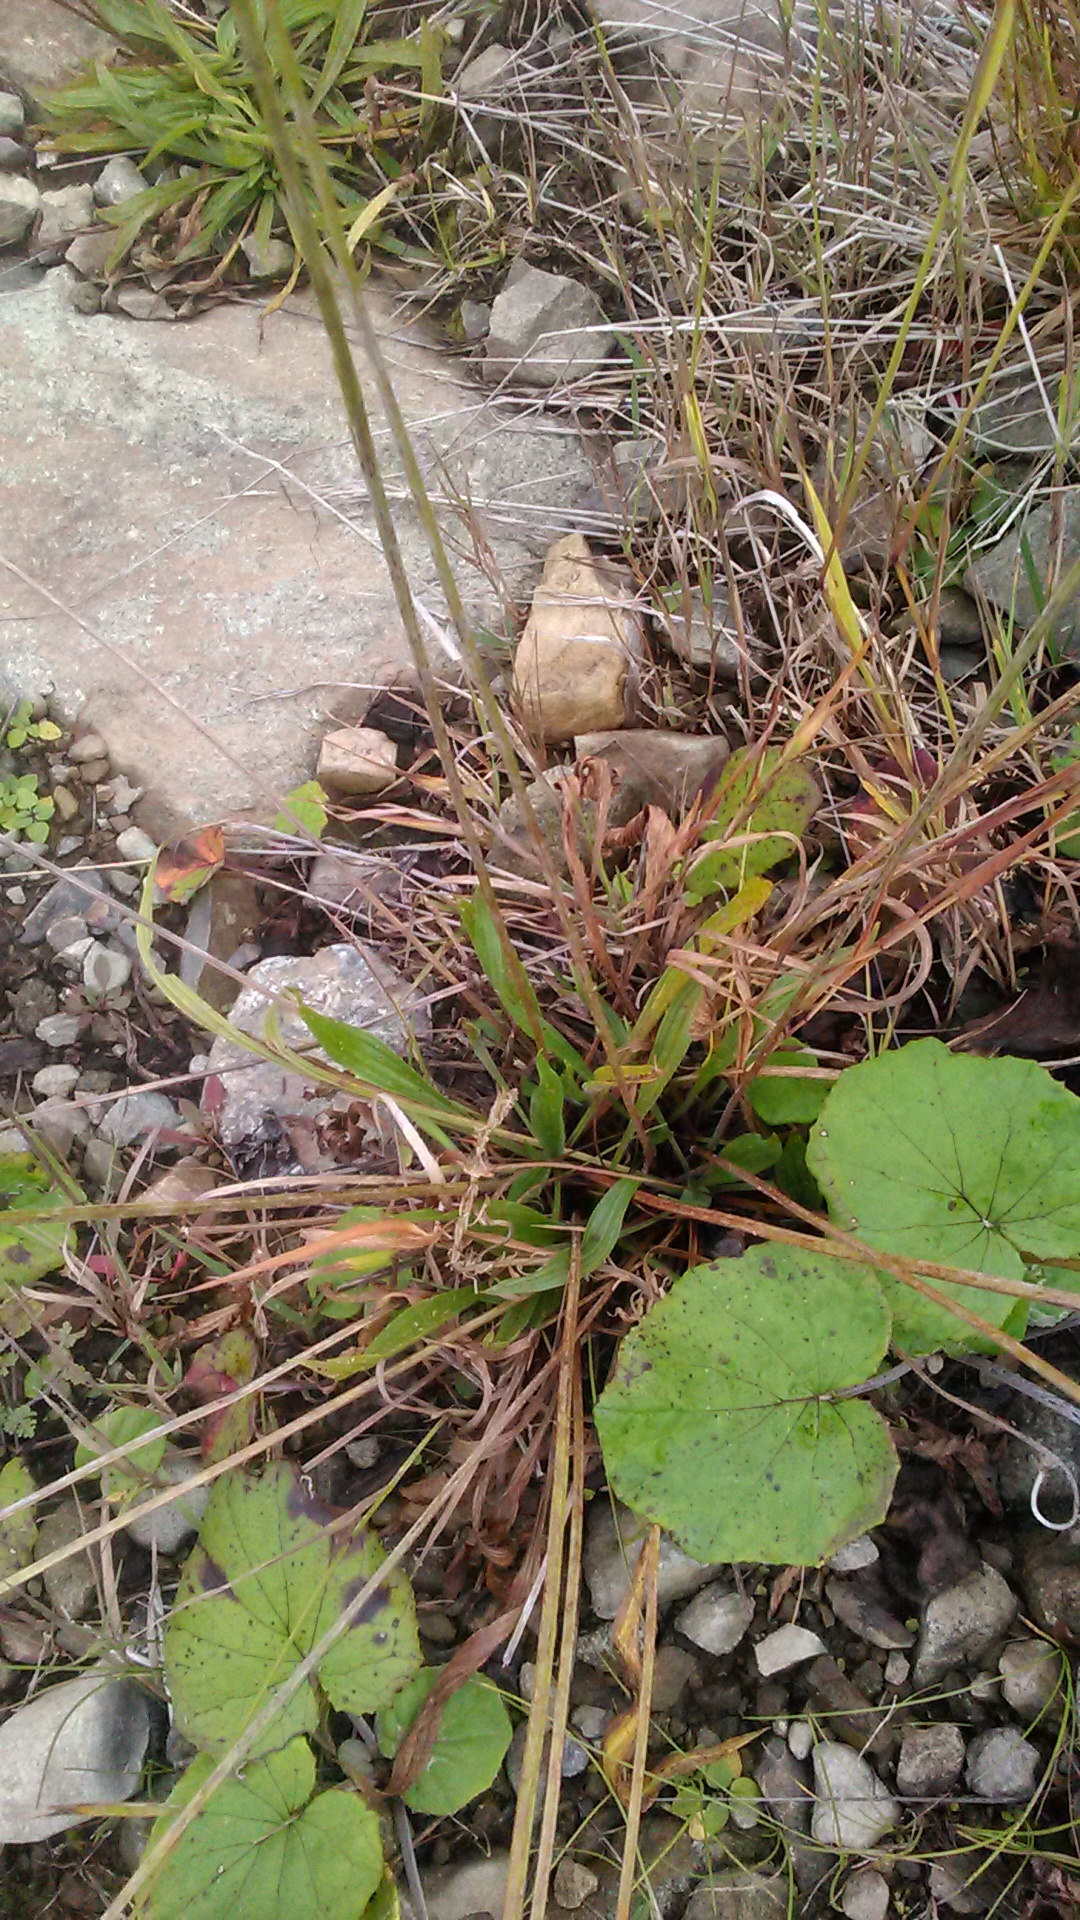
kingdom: Plantae
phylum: Tracheophyta
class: Magnoliopsida
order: Lamiales
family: Plantaginaceae
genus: Plantago
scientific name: Plantago lanceolata
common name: Ribwort plantain
